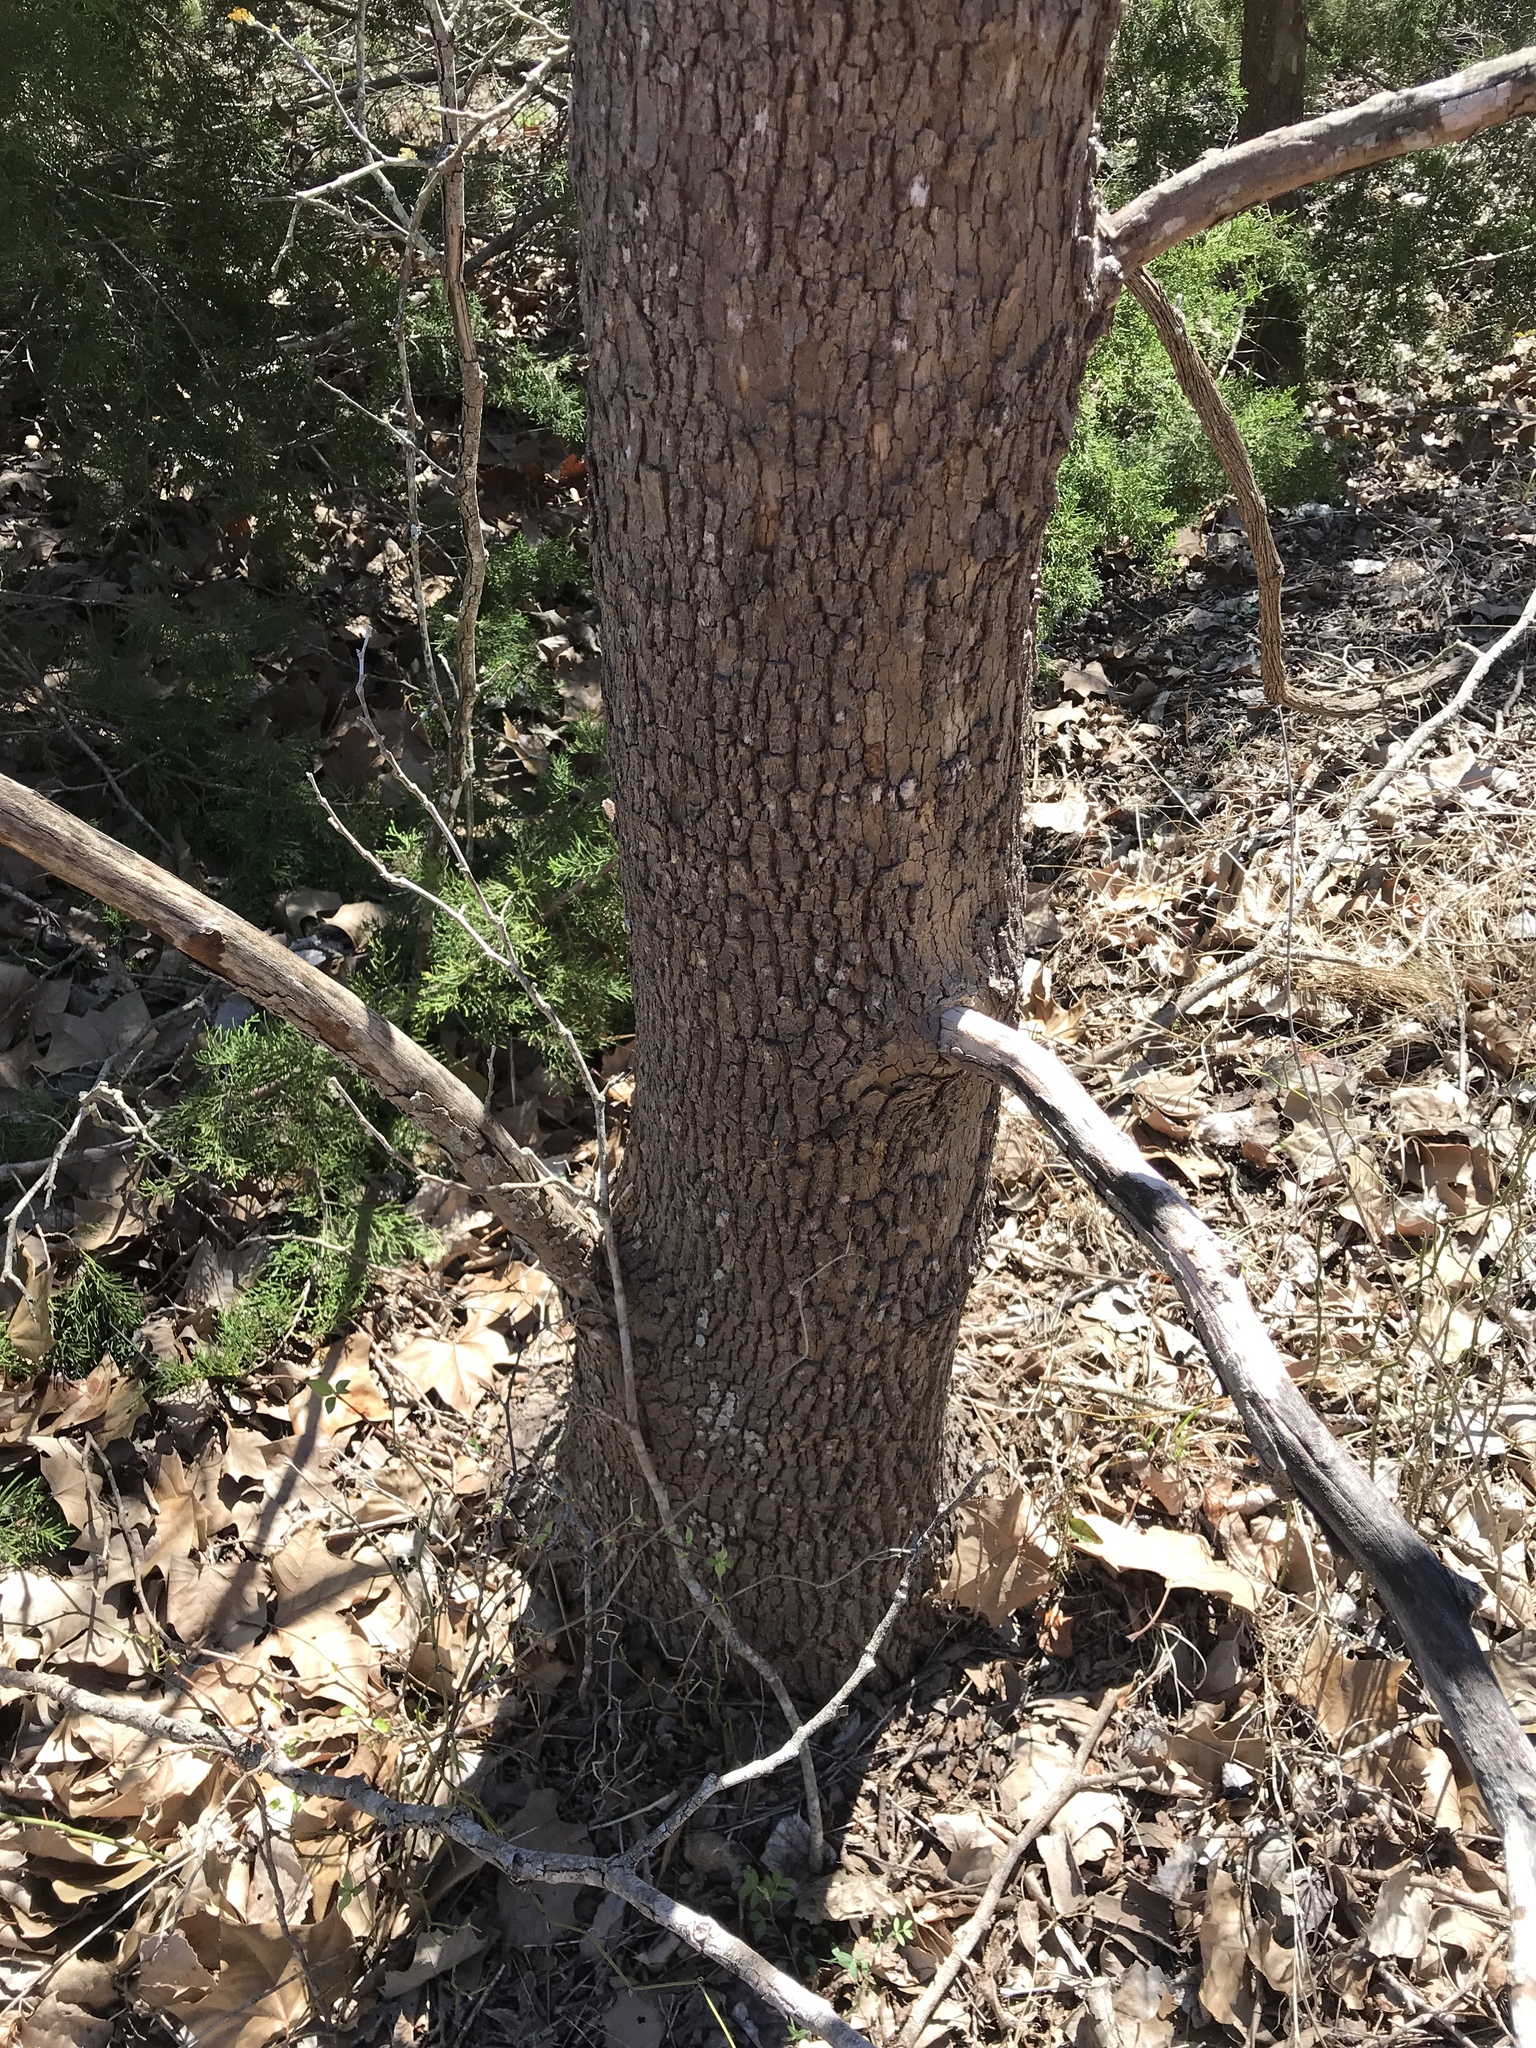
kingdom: Plantae
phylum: Tracheophyta
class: Magnoliopsida
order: Proteales
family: Platanaceae
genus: Platanus
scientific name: Platanus occidentalis
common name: American sycamore
